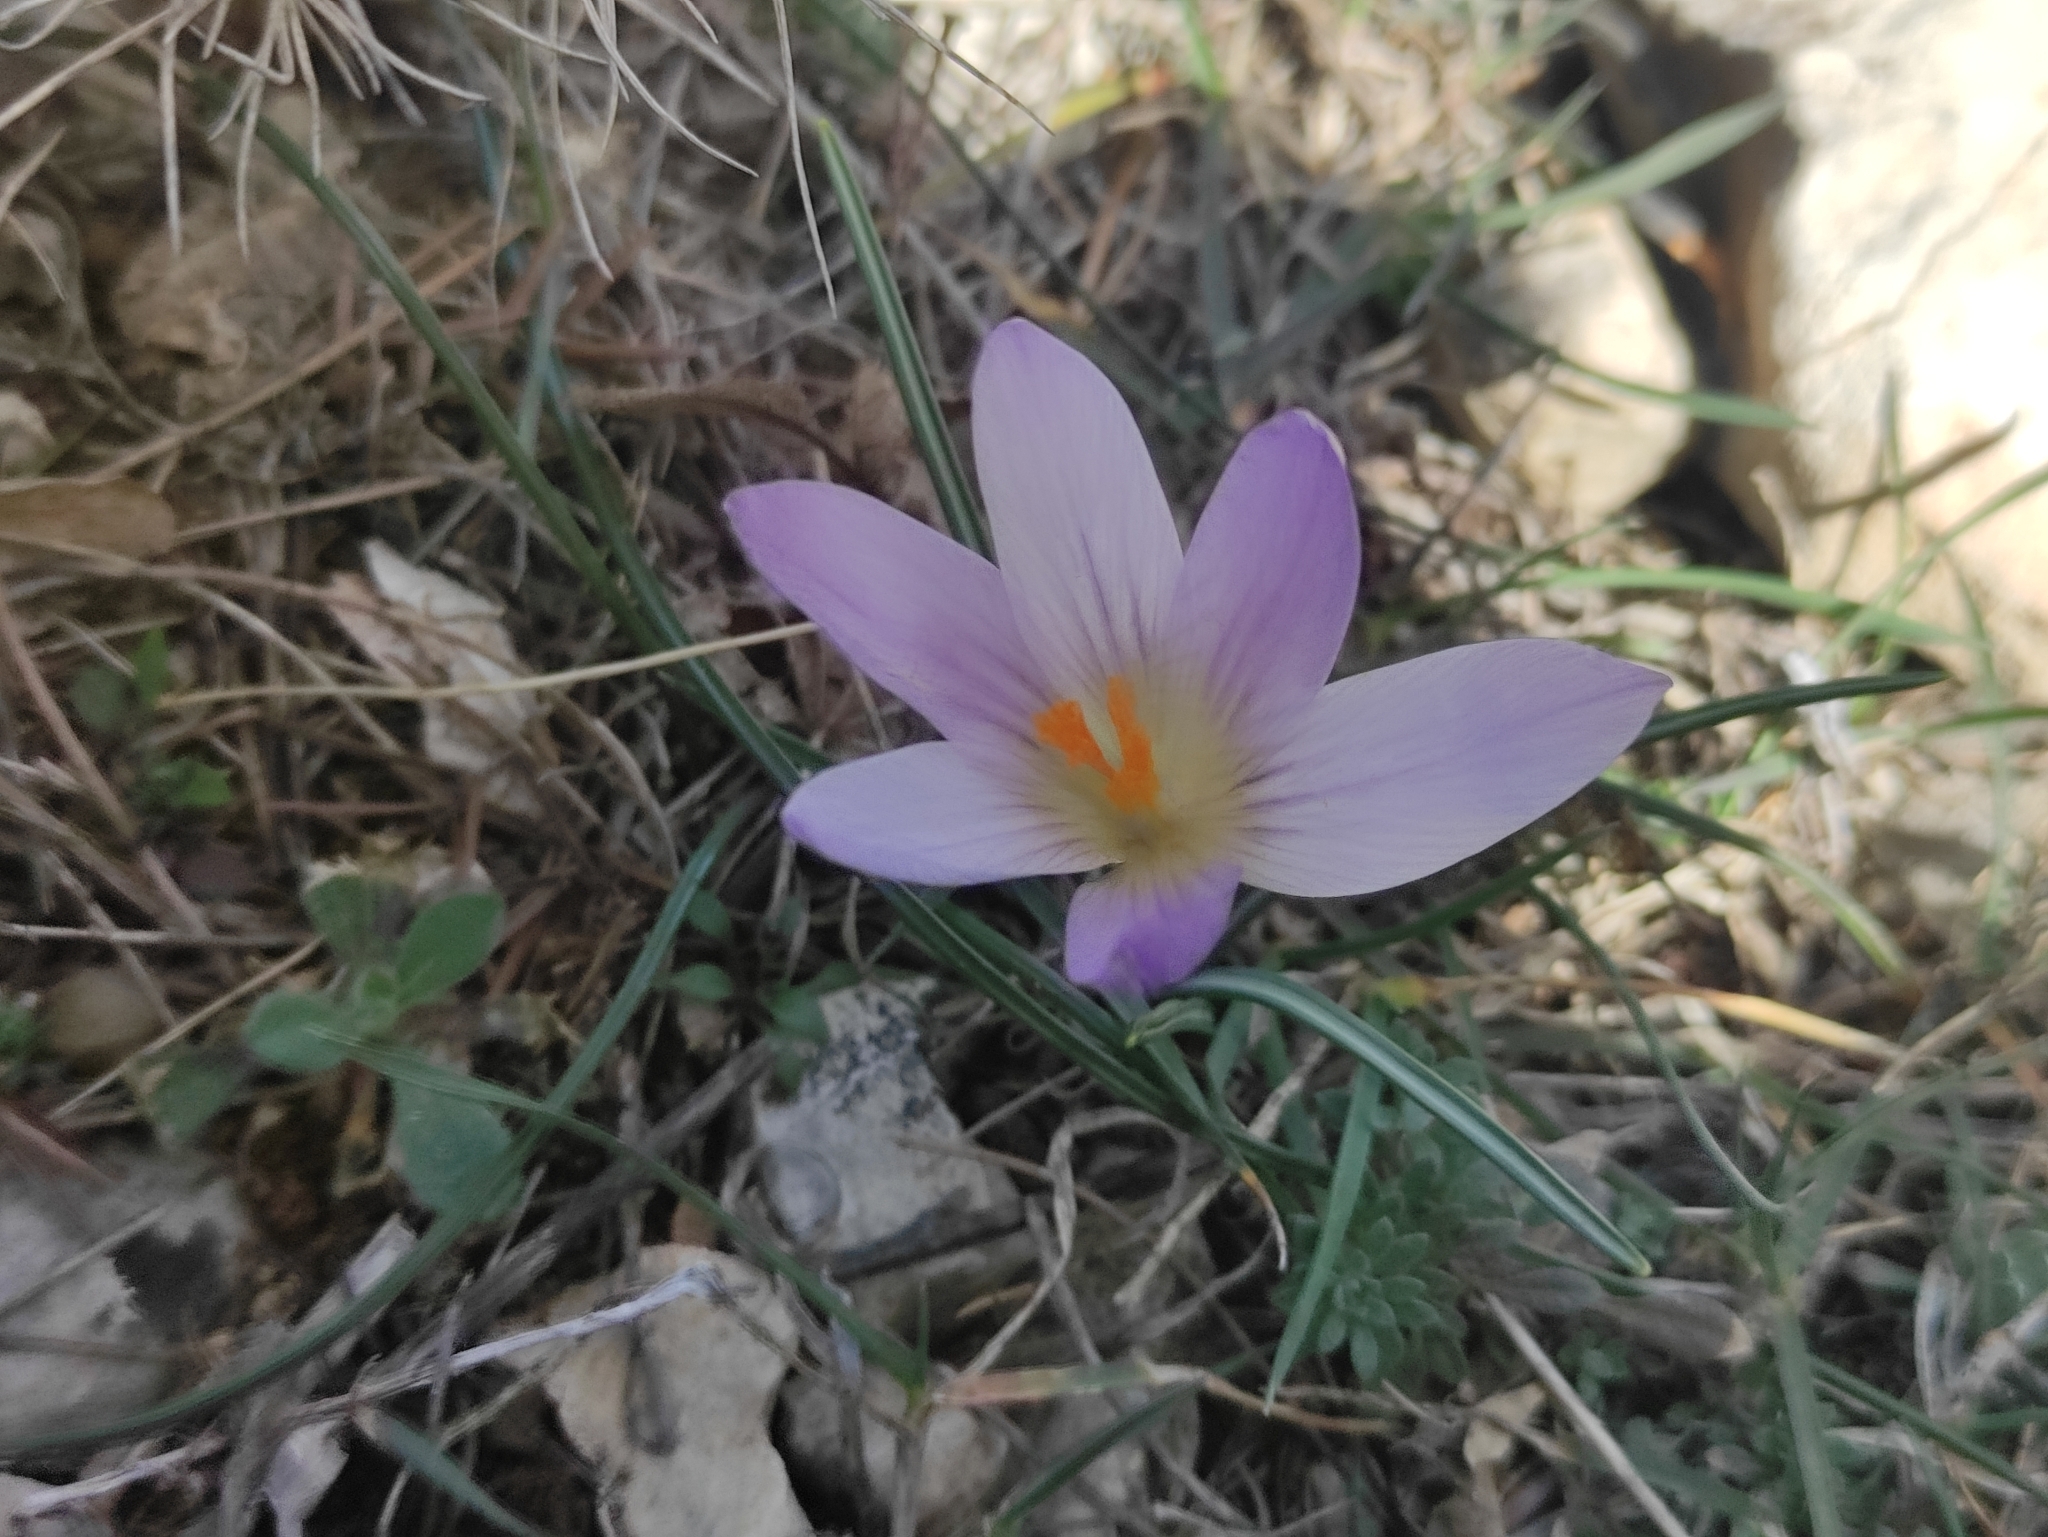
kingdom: Plantae
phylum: Tracheophyta
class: Liliopsida
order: Asparagales
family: Iridaceae
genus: Crocus
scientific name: Crocus versicolor
